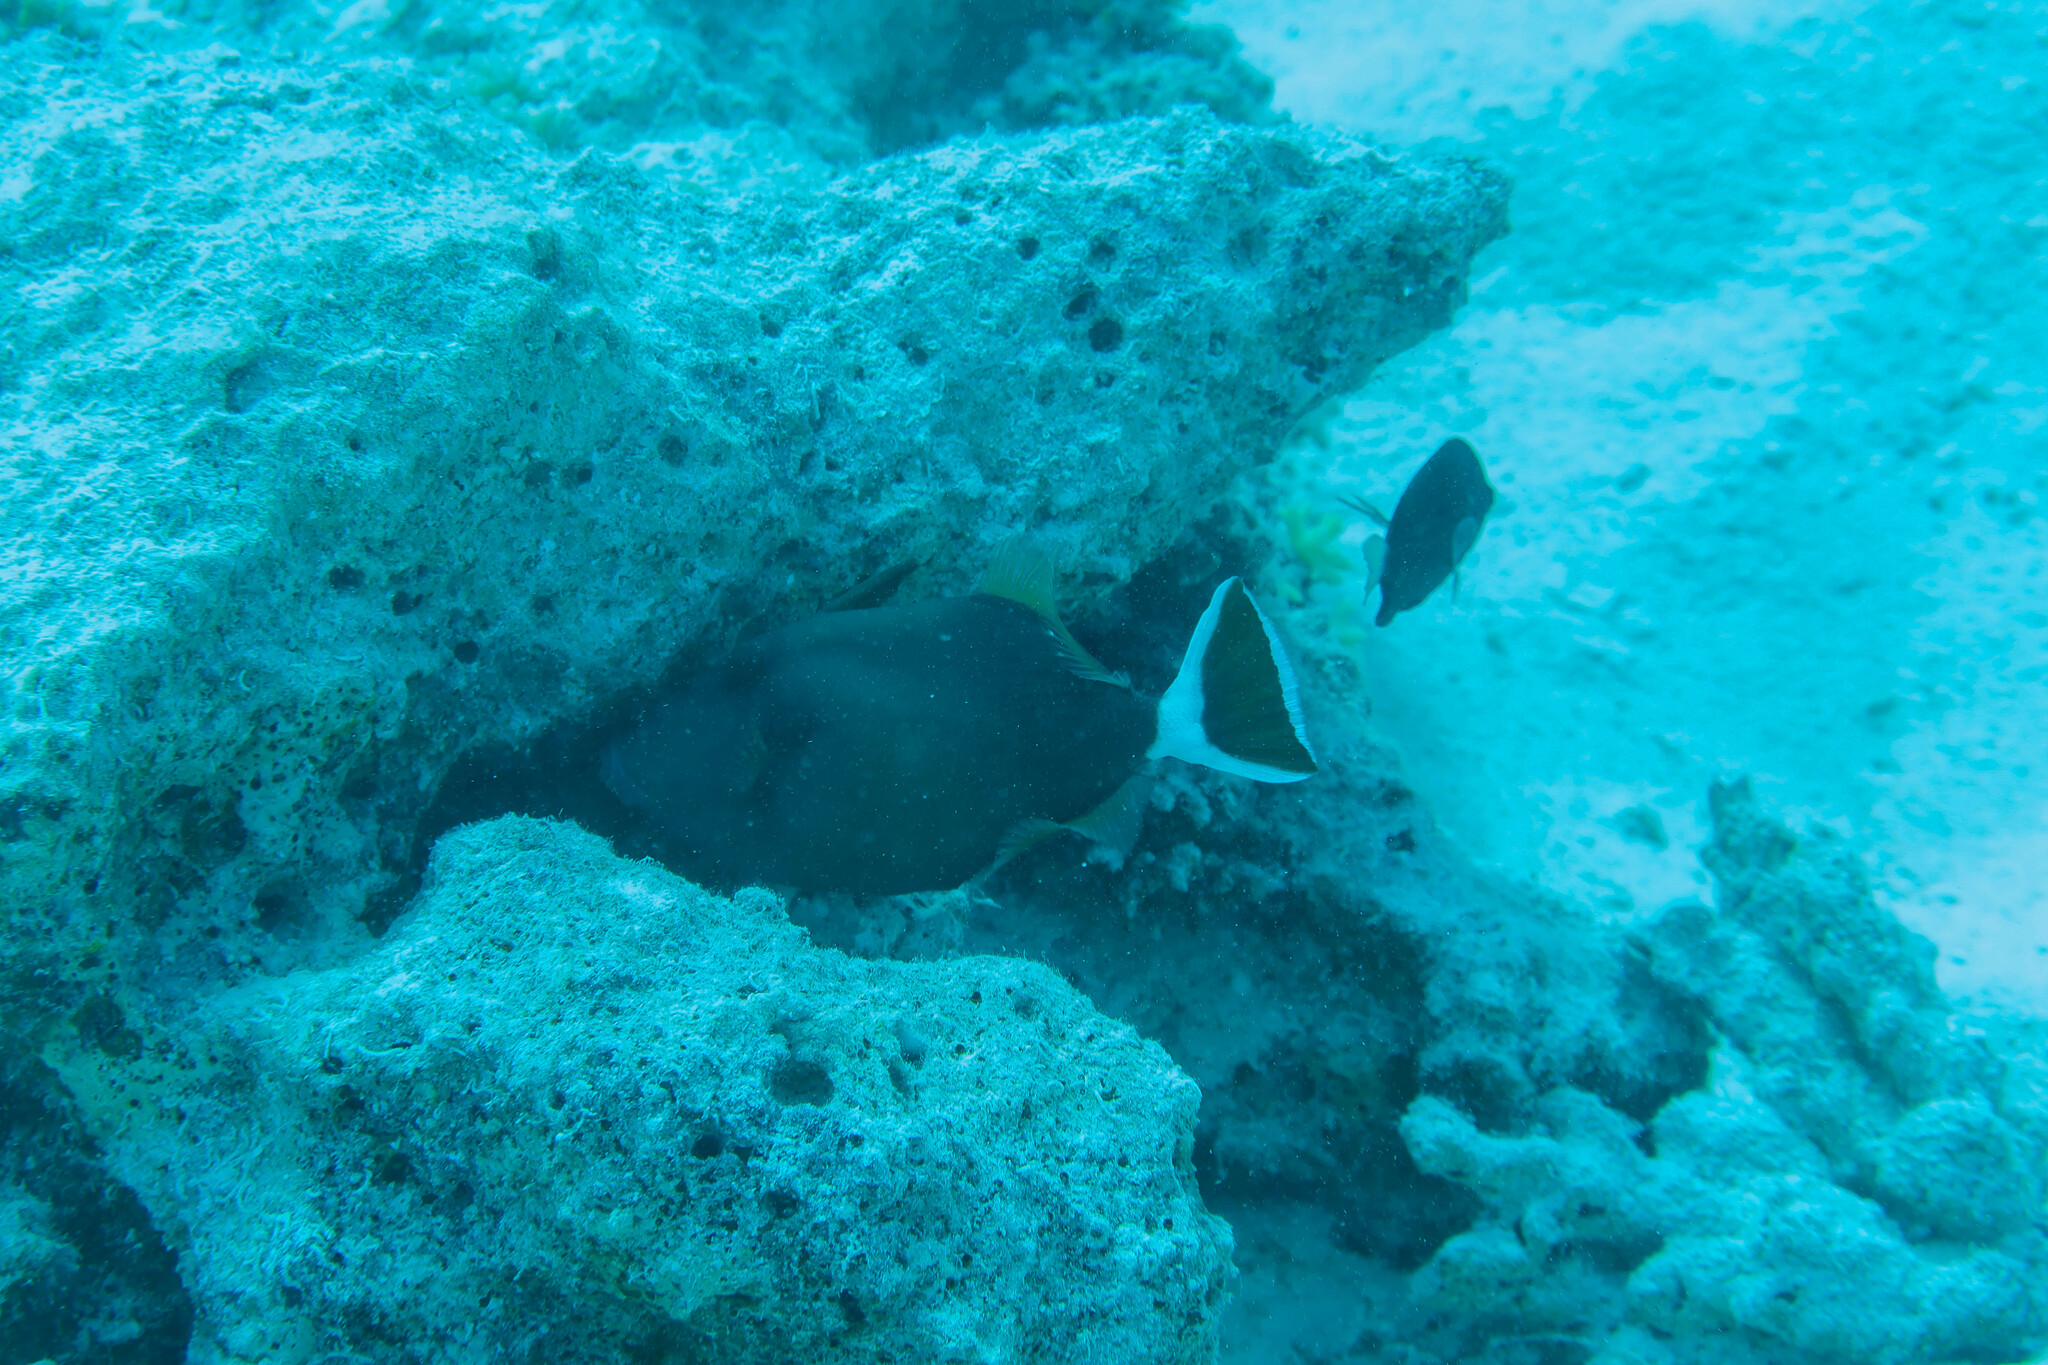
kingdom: Animalia
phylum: Chordata
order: Tetraodontiformes
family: Balistidae
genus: Sufflamen
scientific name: Sufflamen albicaudatum
